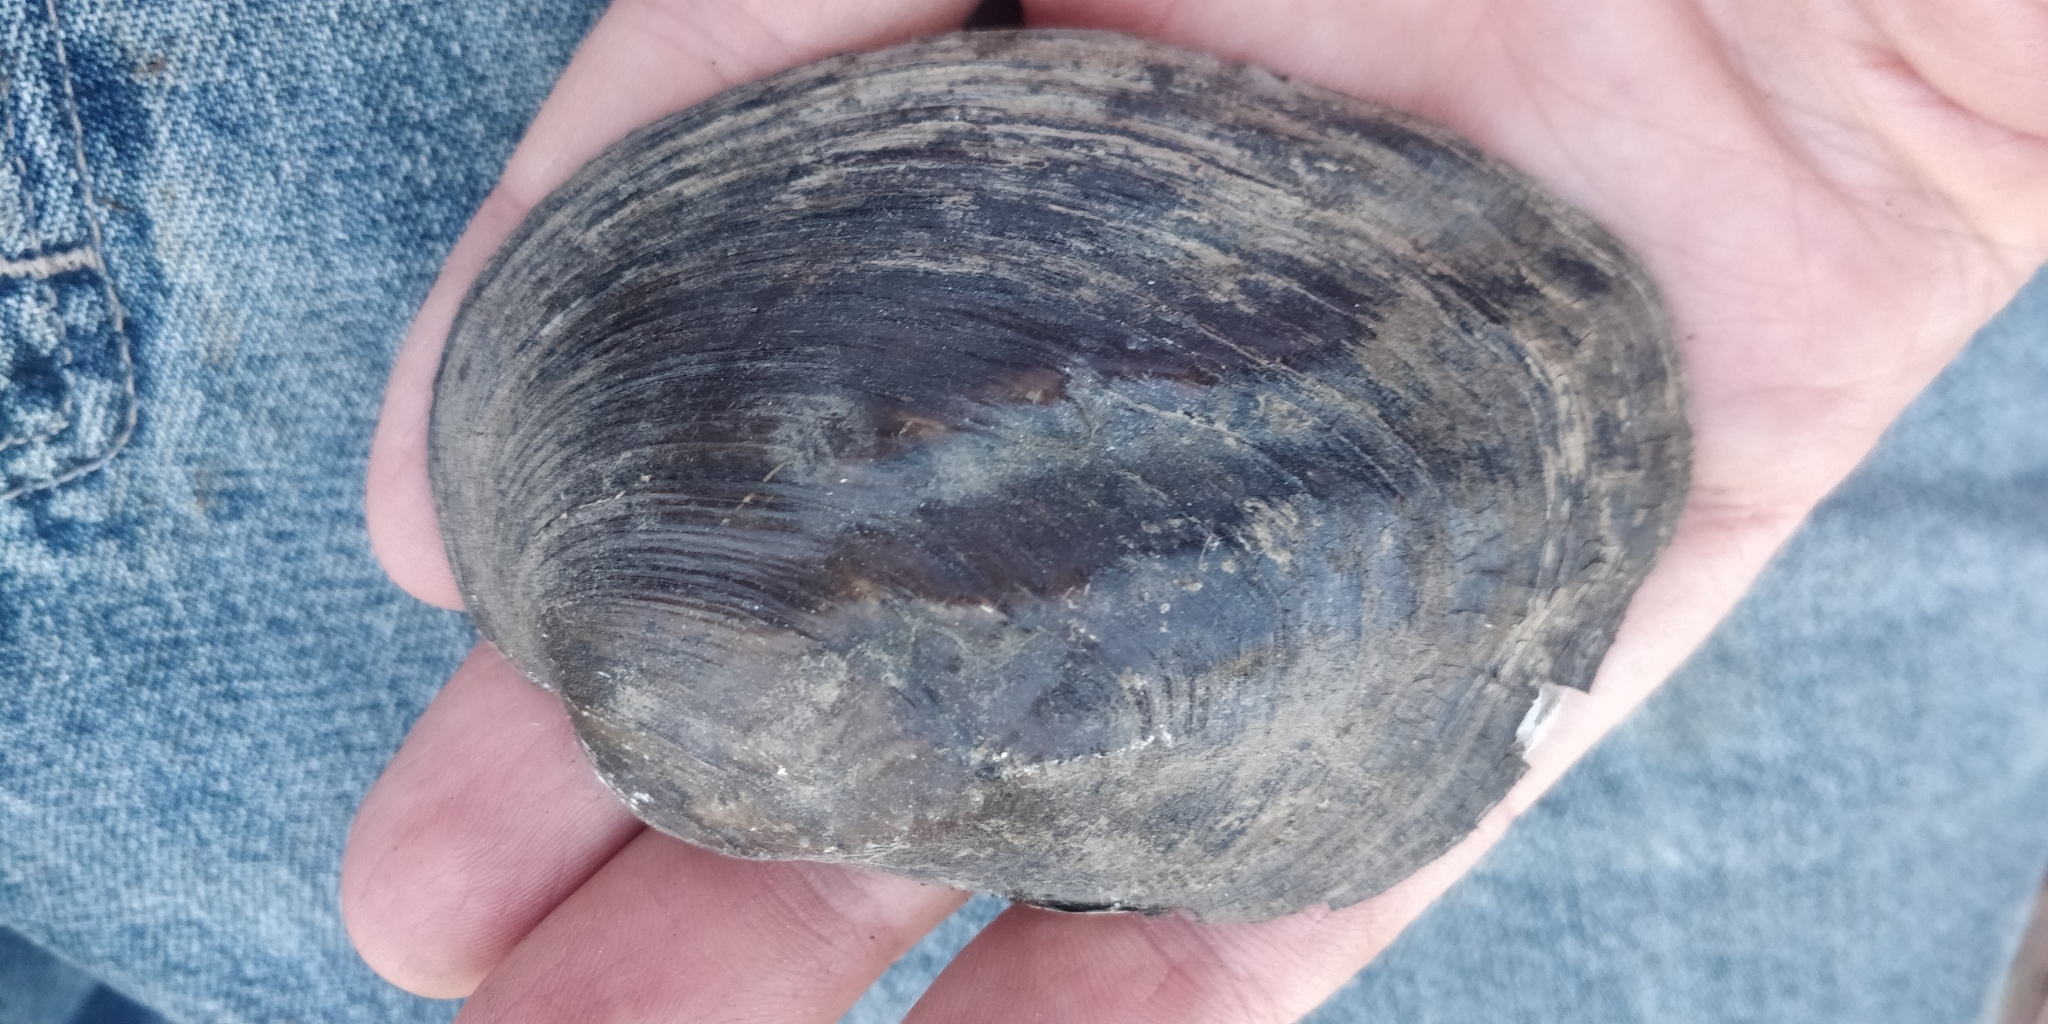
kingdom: Animalia
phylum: Mollusca
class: Bivalvia
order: Unionida
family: Unionidae
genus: Amblema
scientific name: Amblema plicata
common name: Threeridge
